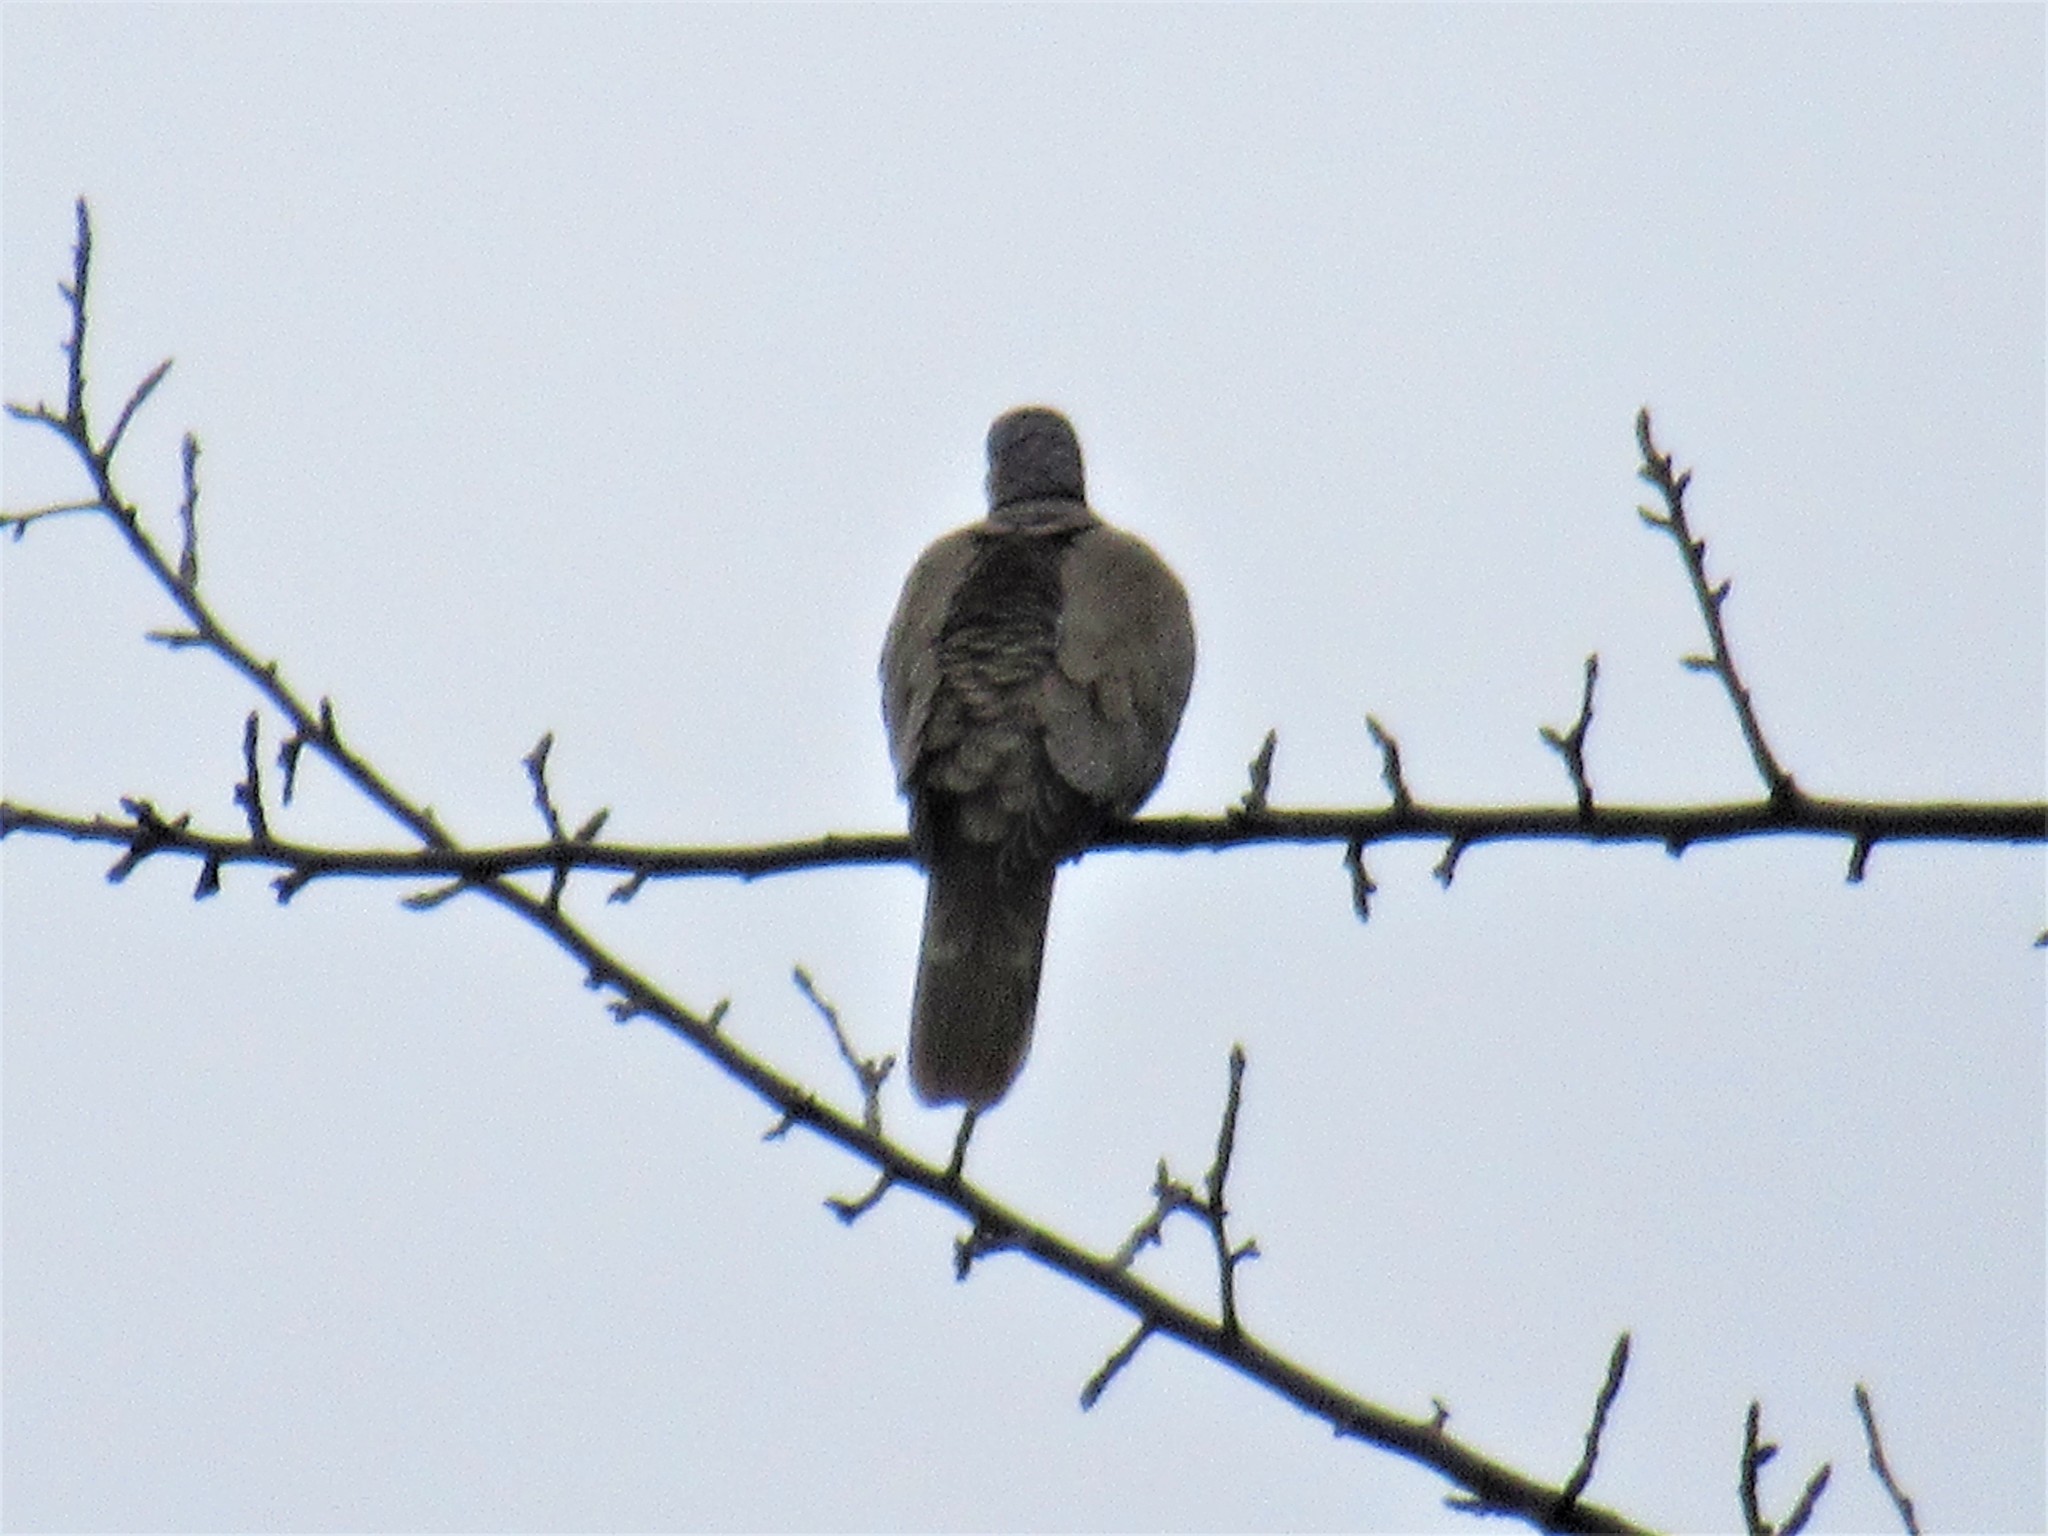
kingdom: Animalia
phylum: Chordata
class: Aves
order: Columbiformes
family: Columbidae
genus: Streptopelia
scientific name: Streptopelia decaocto
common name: Eurasian collared dove
